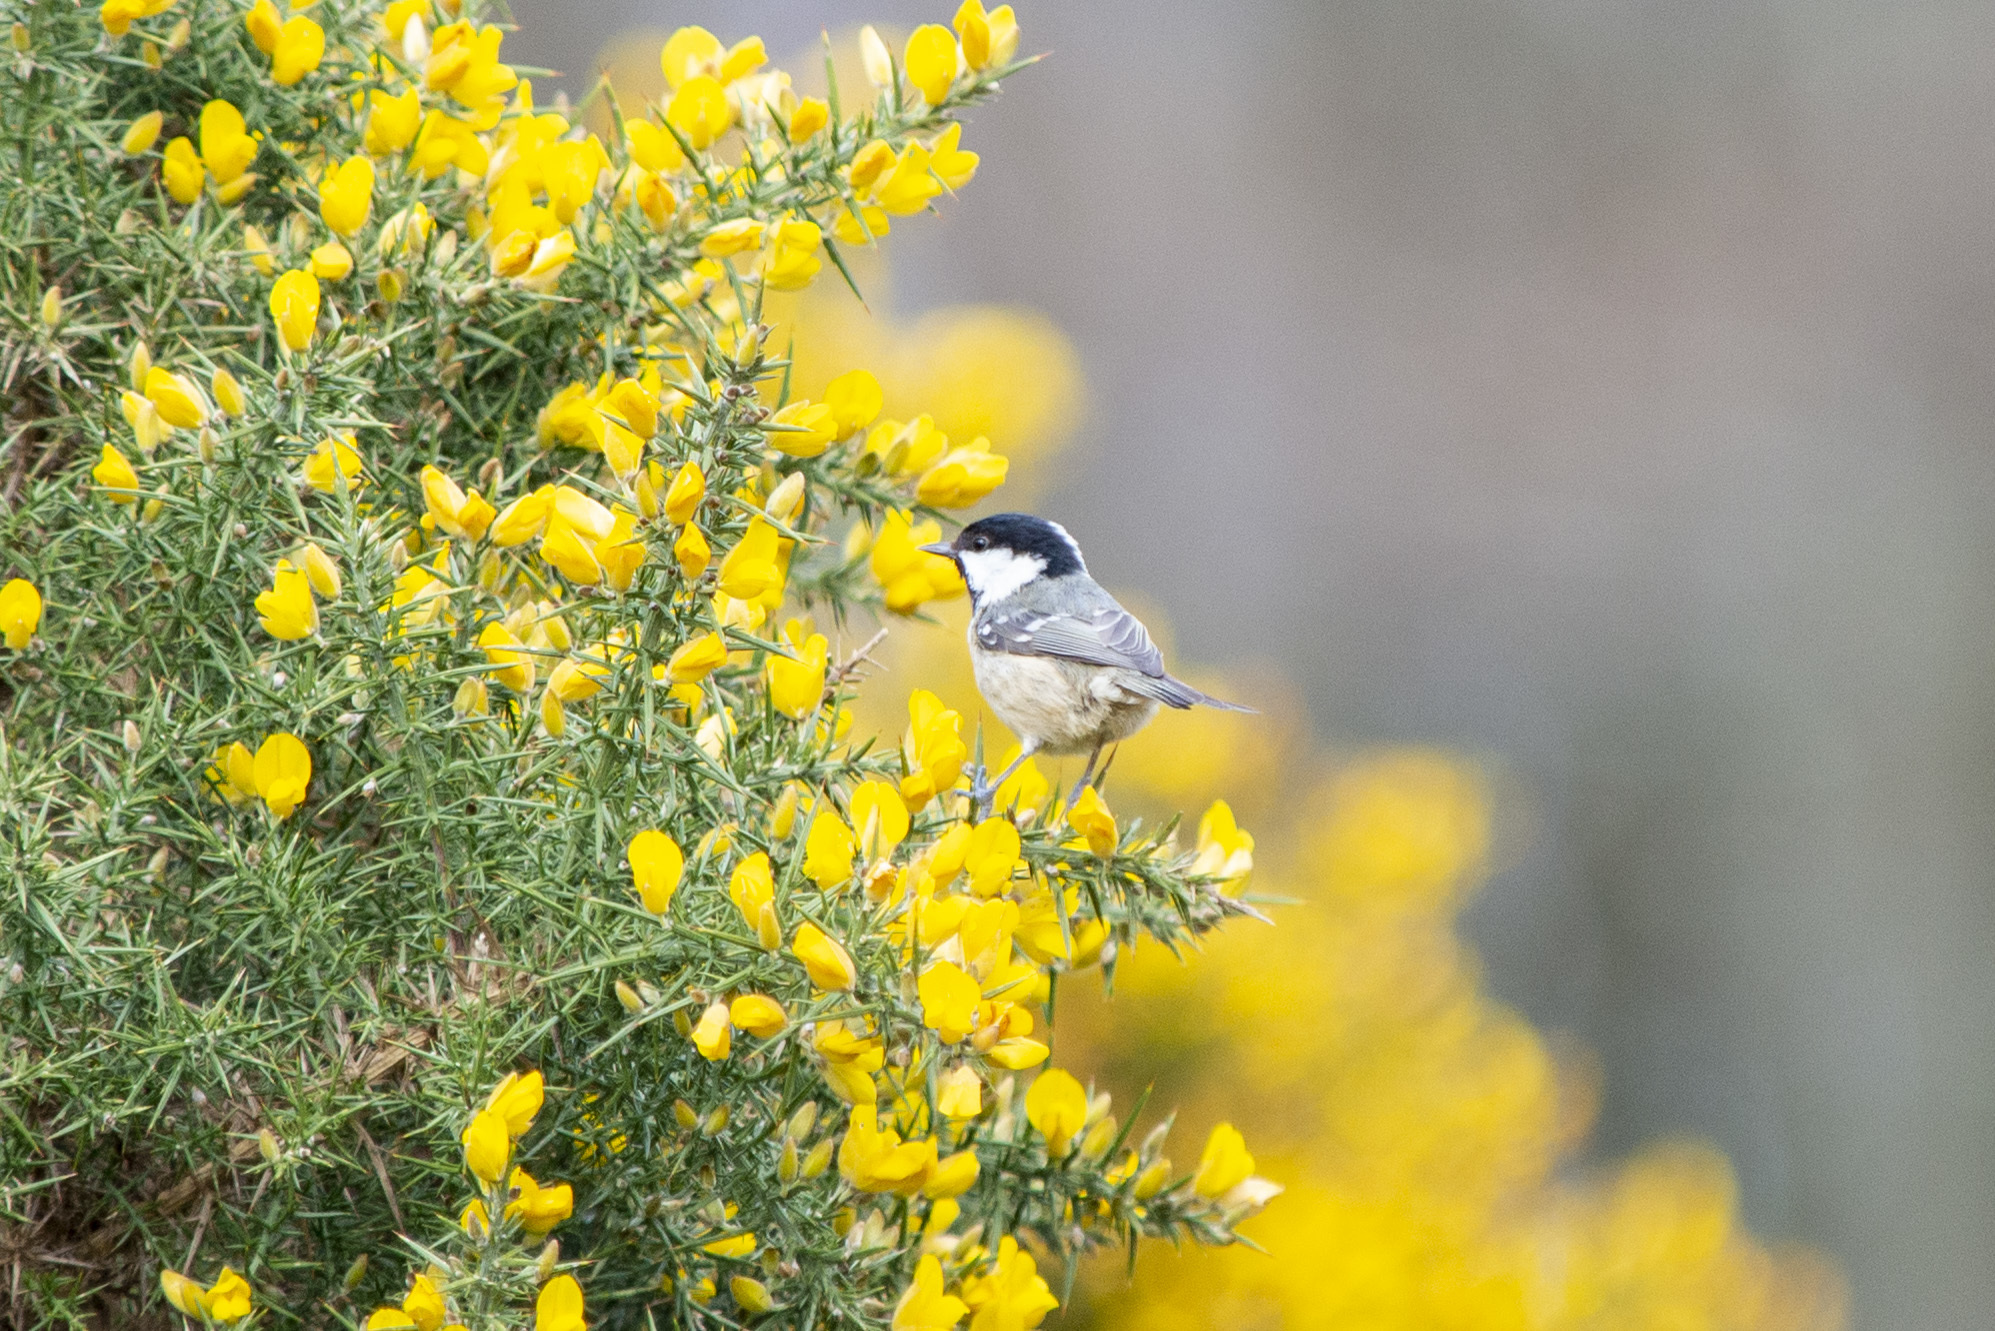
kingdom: Animalia
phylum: Chordata
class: Aves
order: Passeriformes
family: Paridae
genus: Periparus
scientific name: Periparus ater
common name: Coal tit
